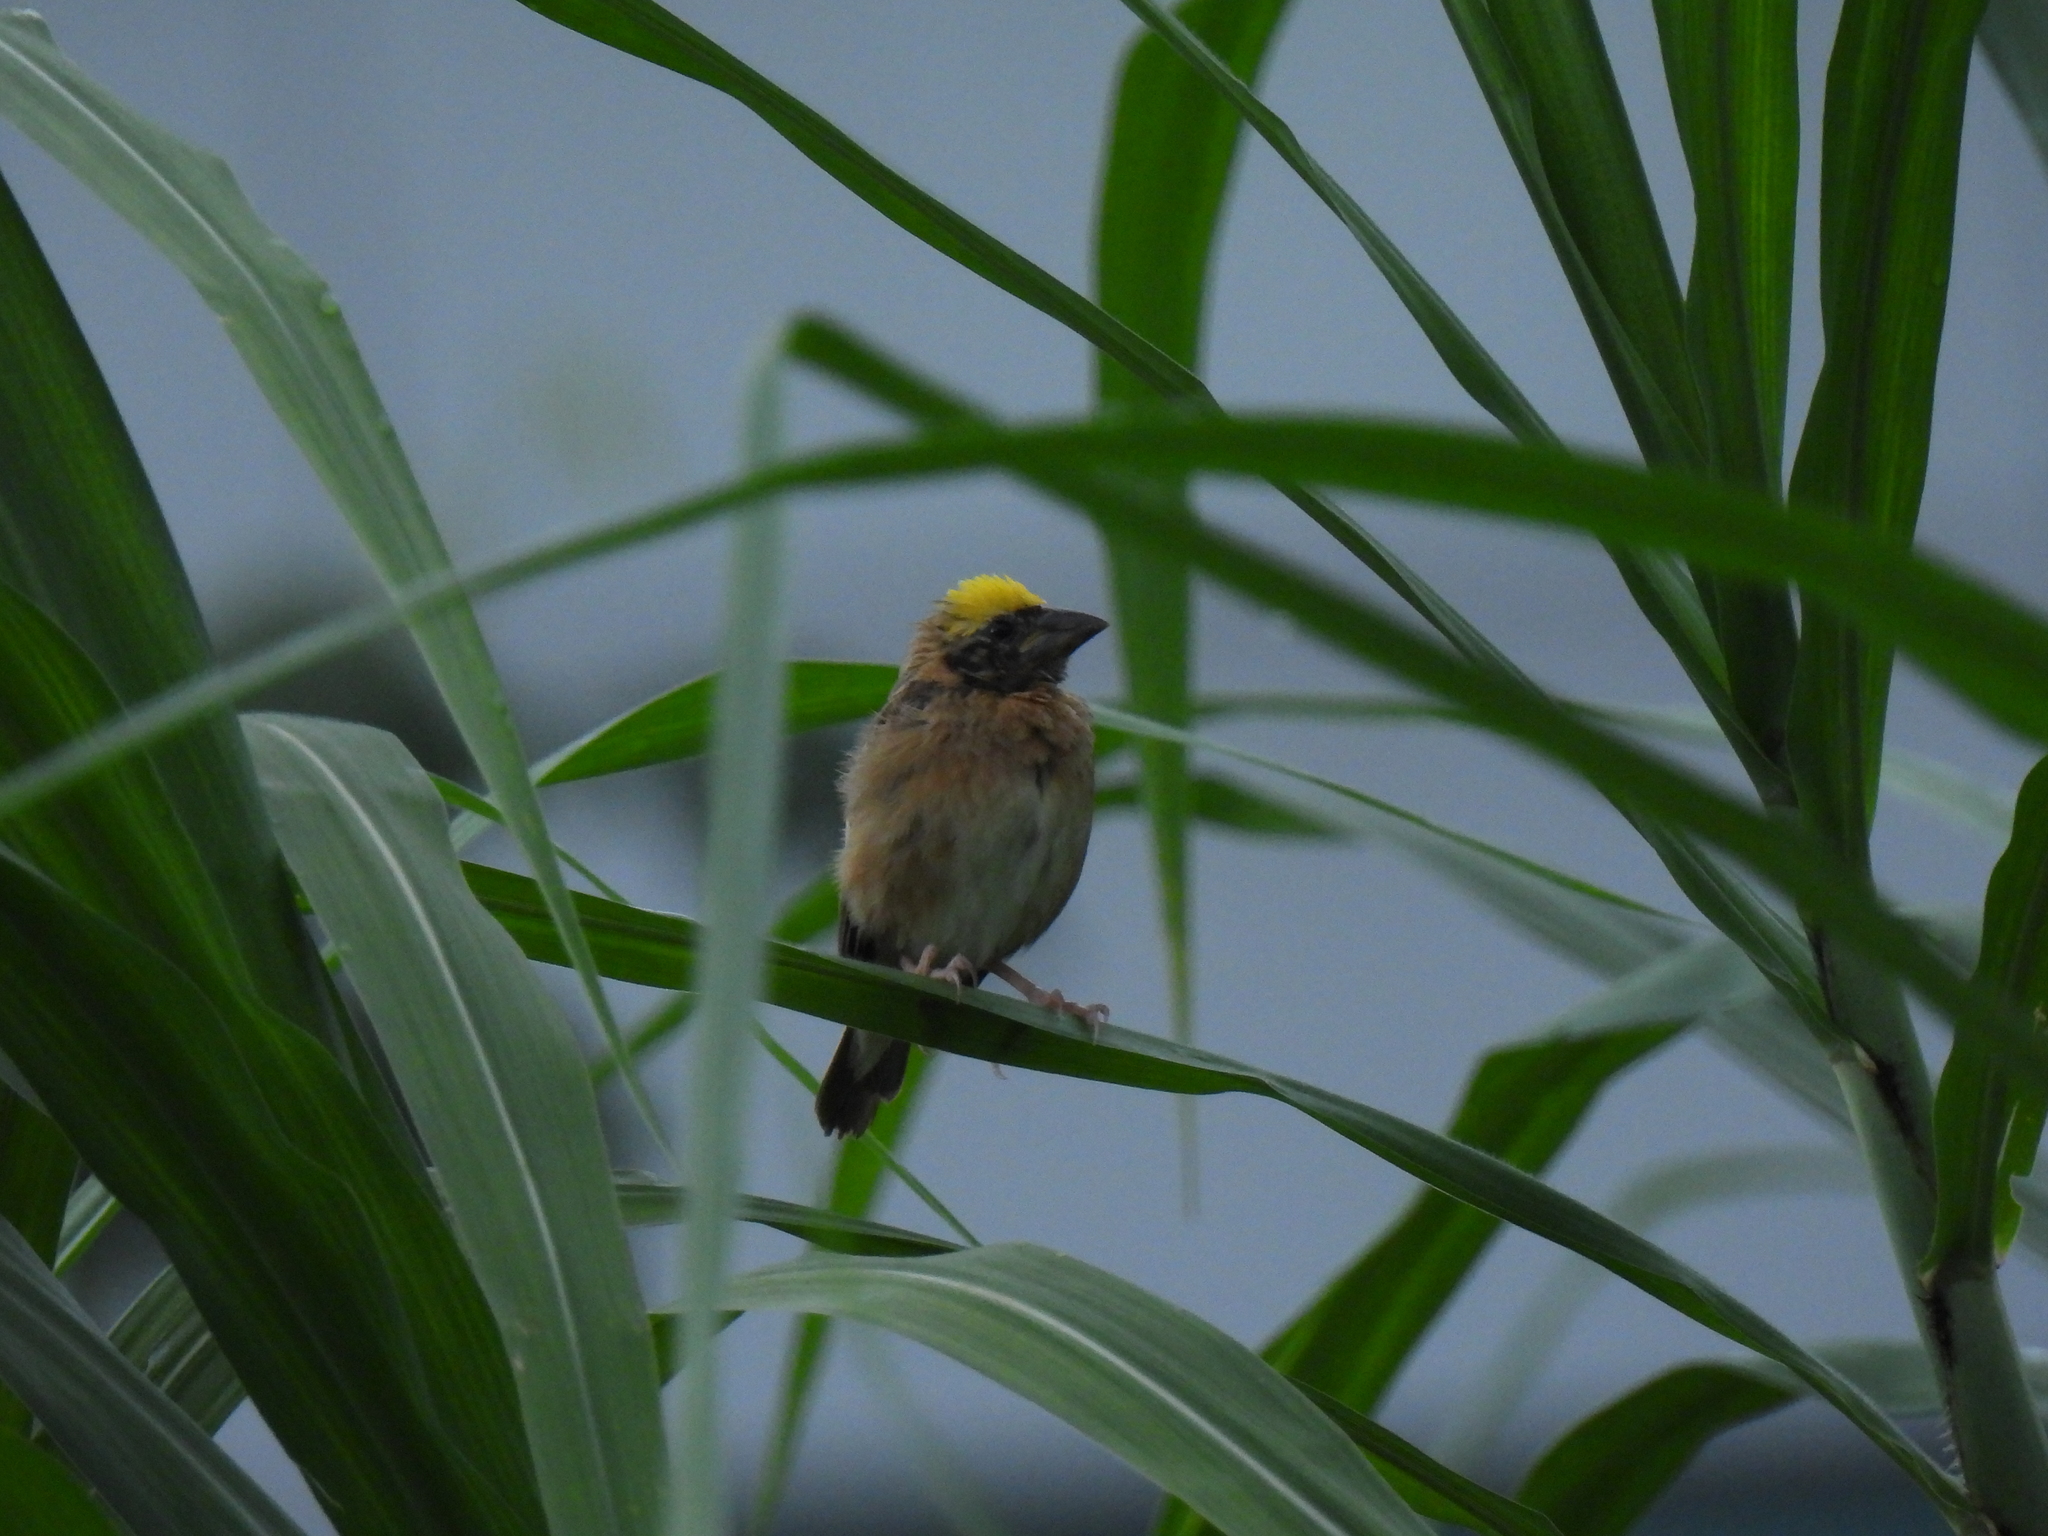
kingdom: Animalia
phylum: Chordata
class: Aves
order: Passeriformes
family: Ploceidae
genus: Ploceus
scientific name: Ploceus philippinus
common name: Baya weaver
